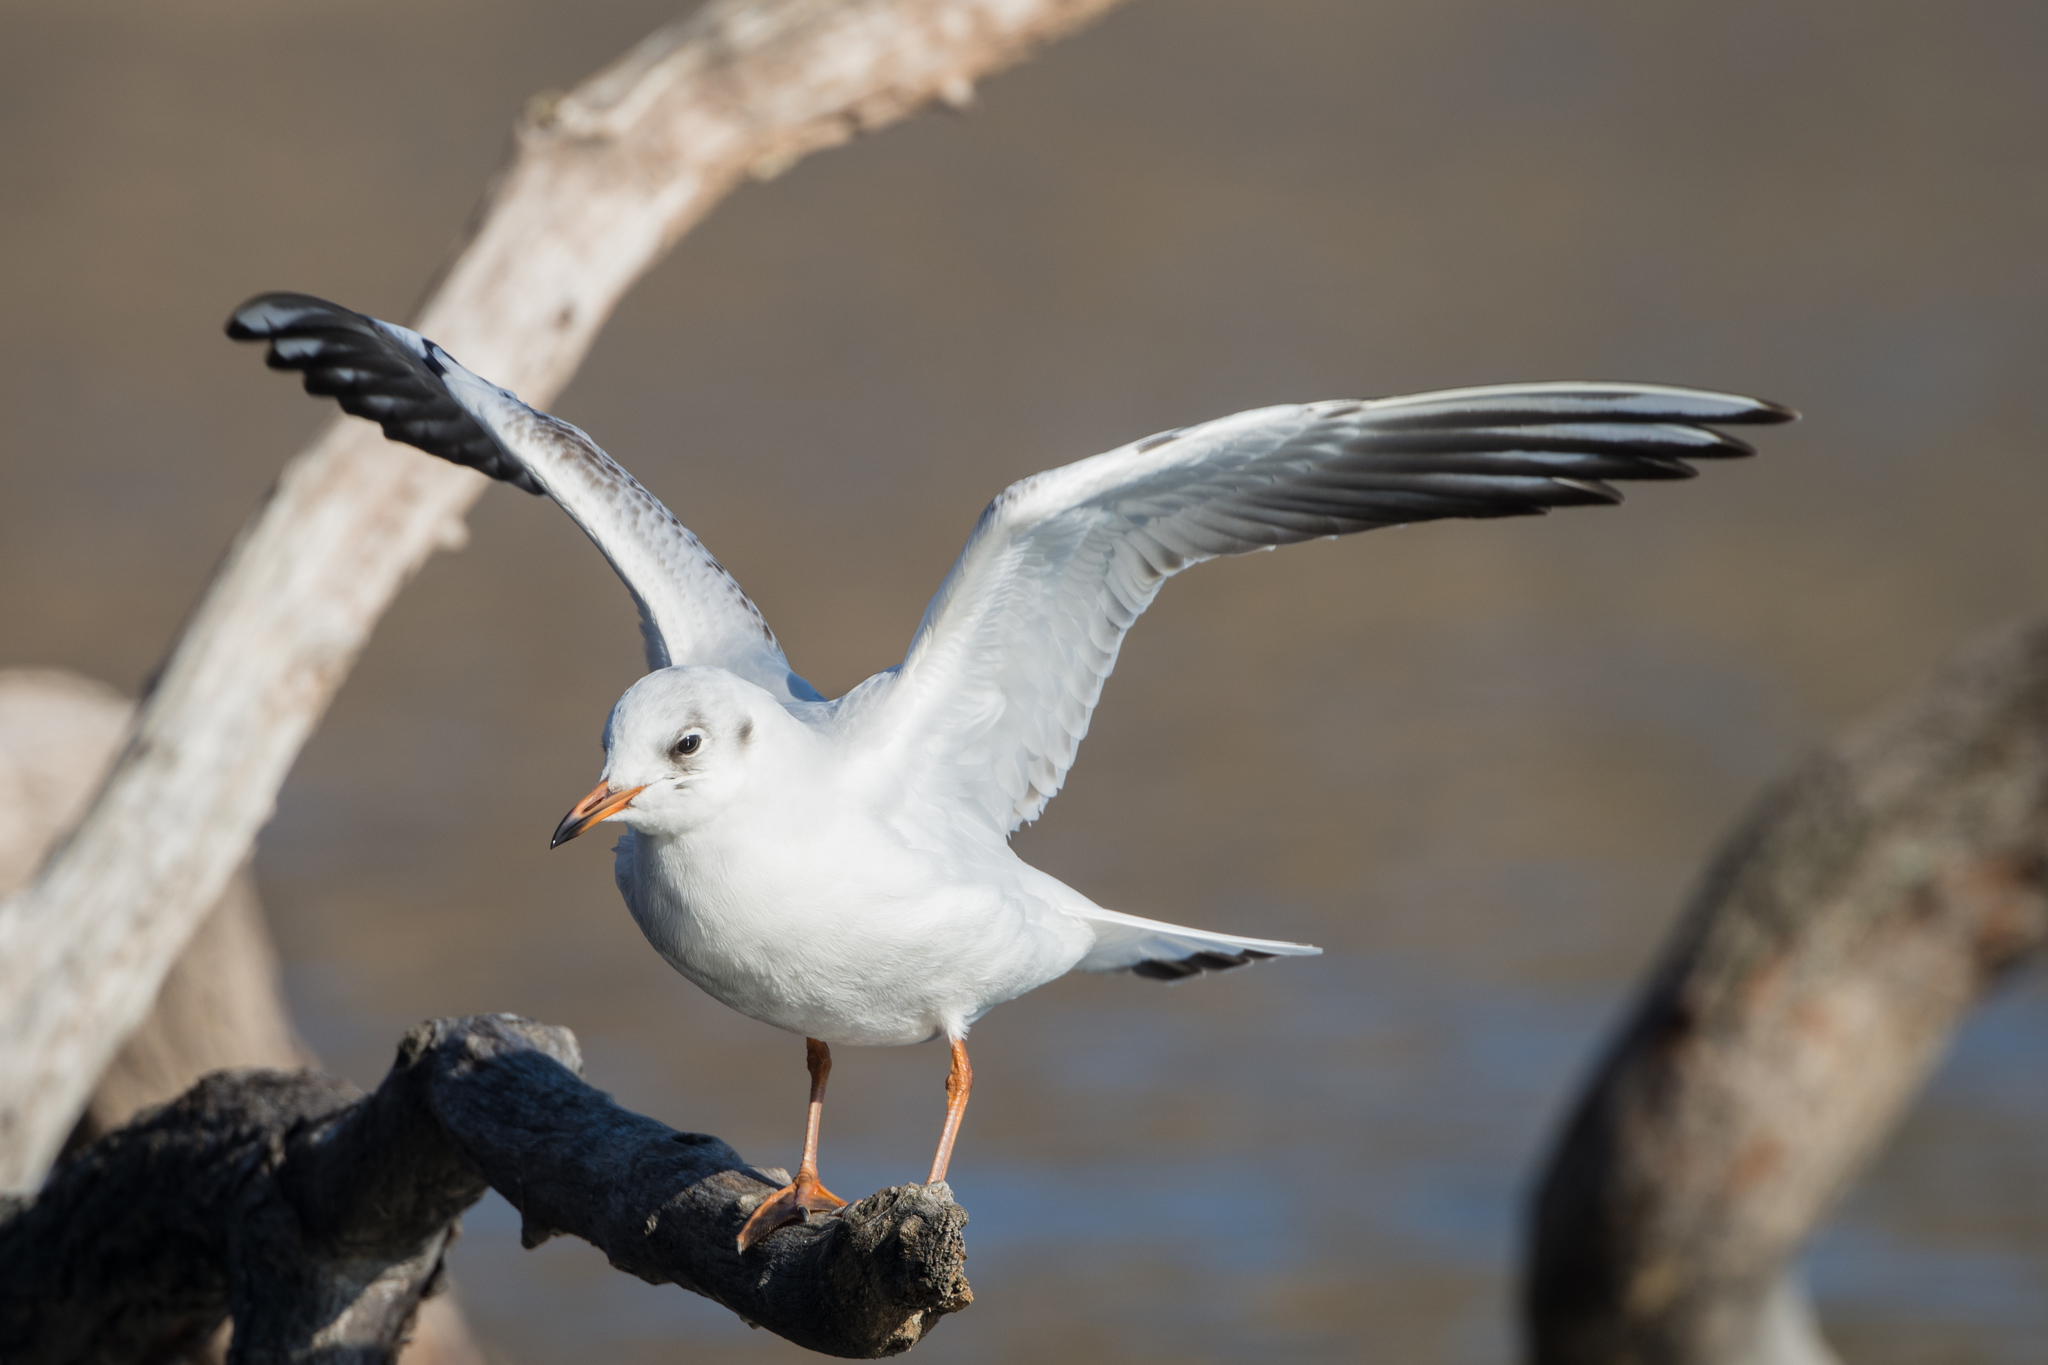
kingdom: Animalia
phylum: Chordata
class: Aves
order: Charadriiformes
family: Laridae
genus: Chroicocephalus
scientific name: Chroicocephalus ridibundus
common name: Black-headed gull
